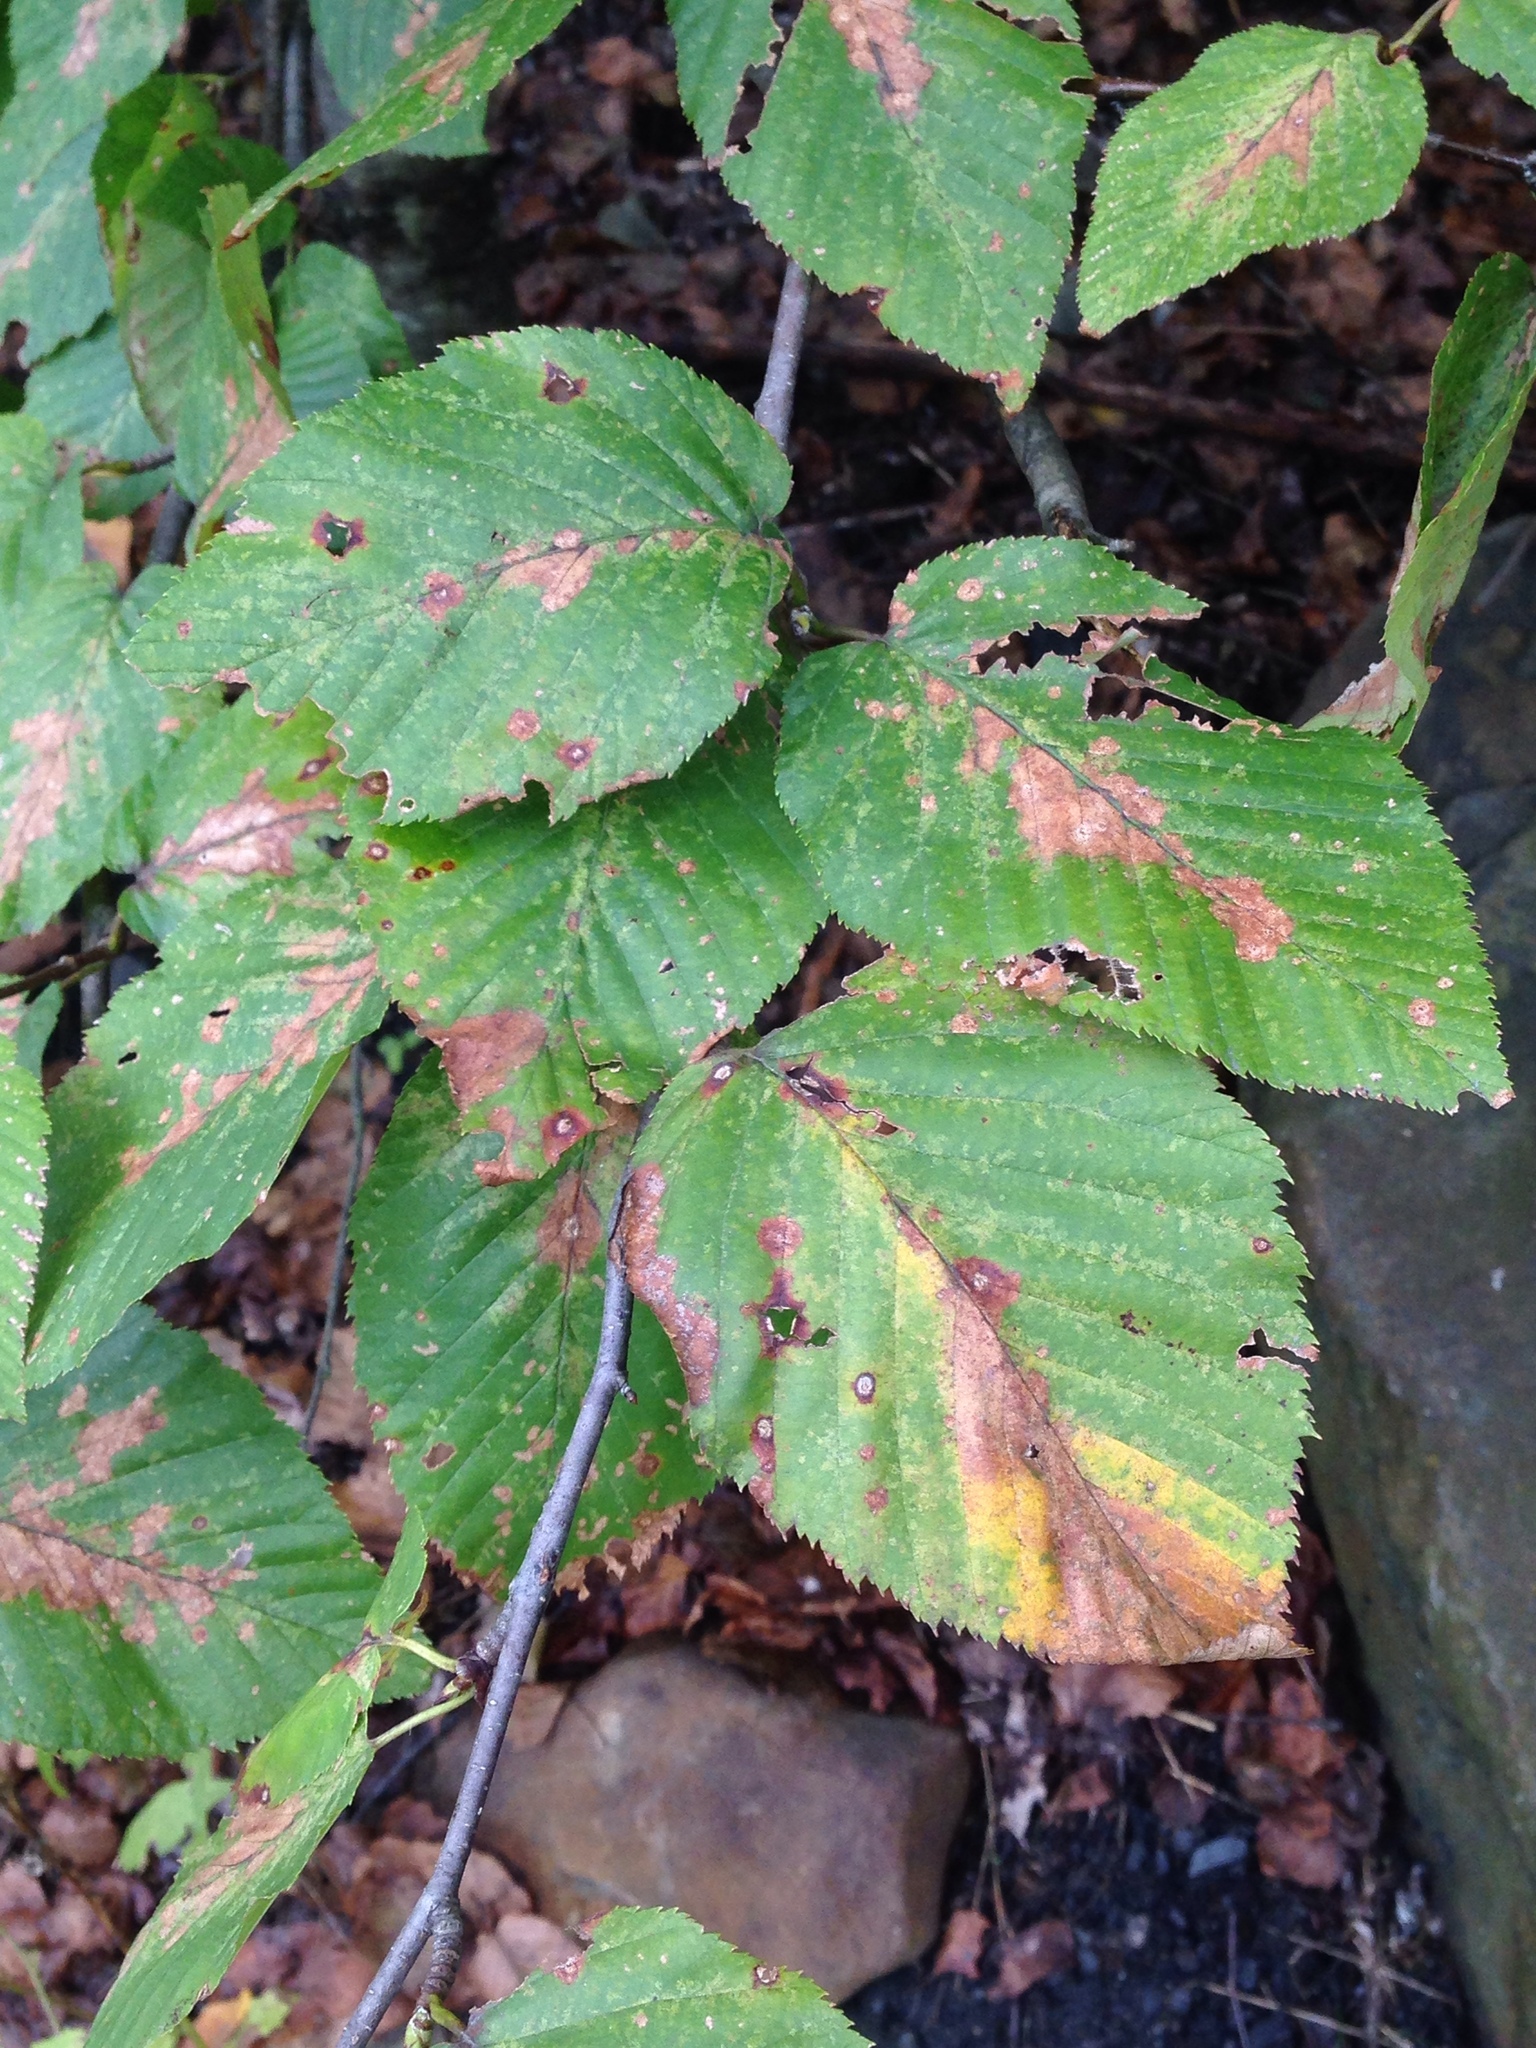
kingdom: Plantae
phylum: Tracheophyta
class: Magnoliopsida
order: Fagales
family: Betulaceae
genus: Betula
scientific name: Betula lenta
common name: Black birch
